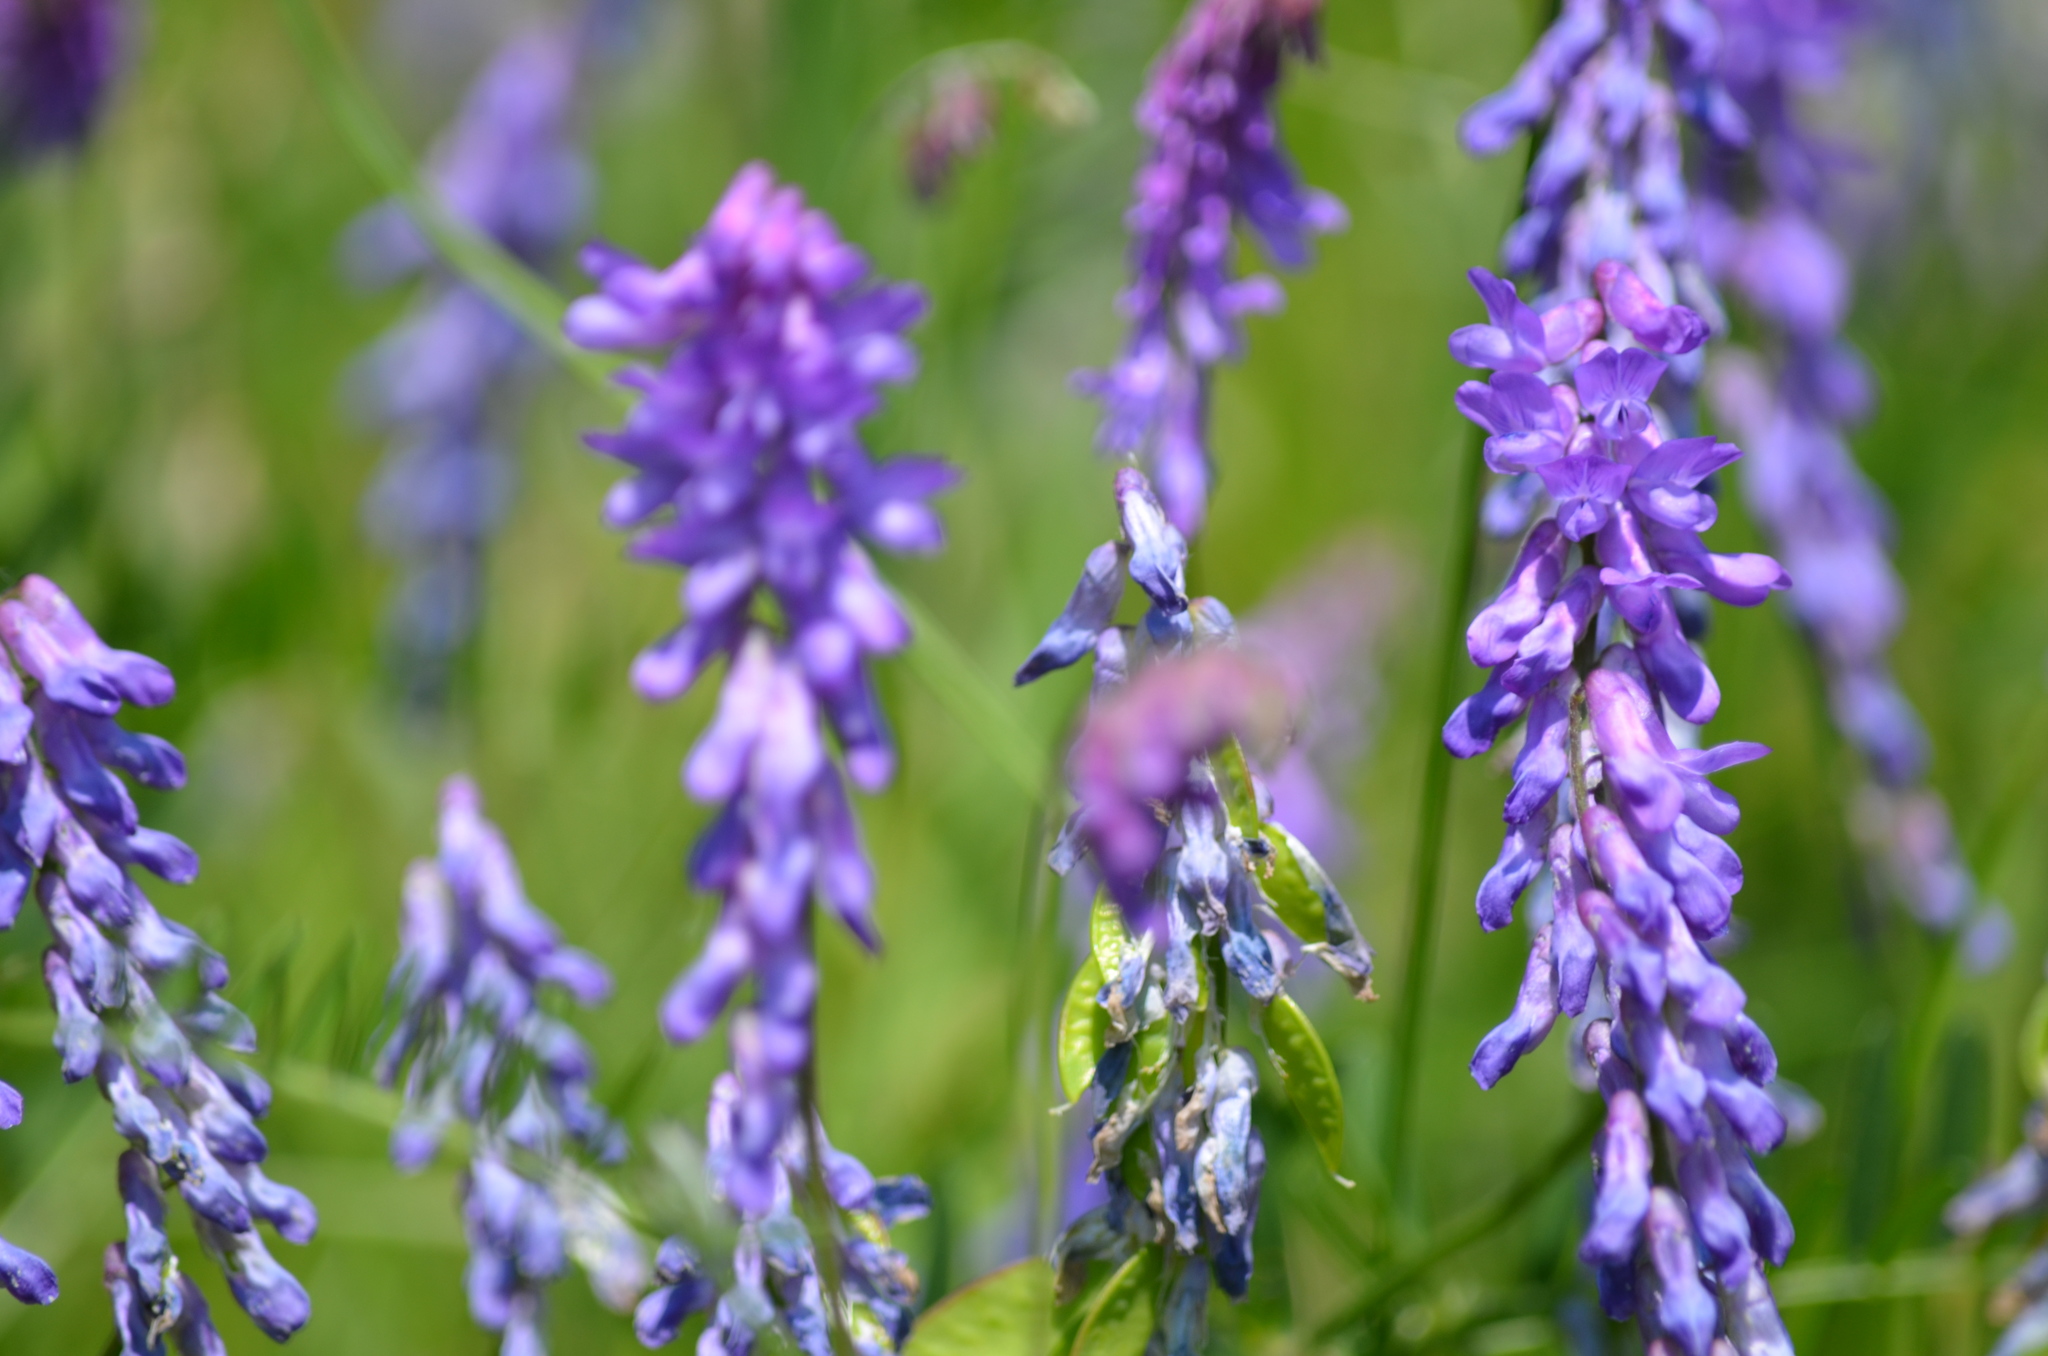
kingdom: Plantae
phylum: Tracheophyta
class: Magnoliopsida
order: Fabales
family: Fabaceae
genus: Vicia
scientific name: Vicia cracca
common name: Bird vetch
